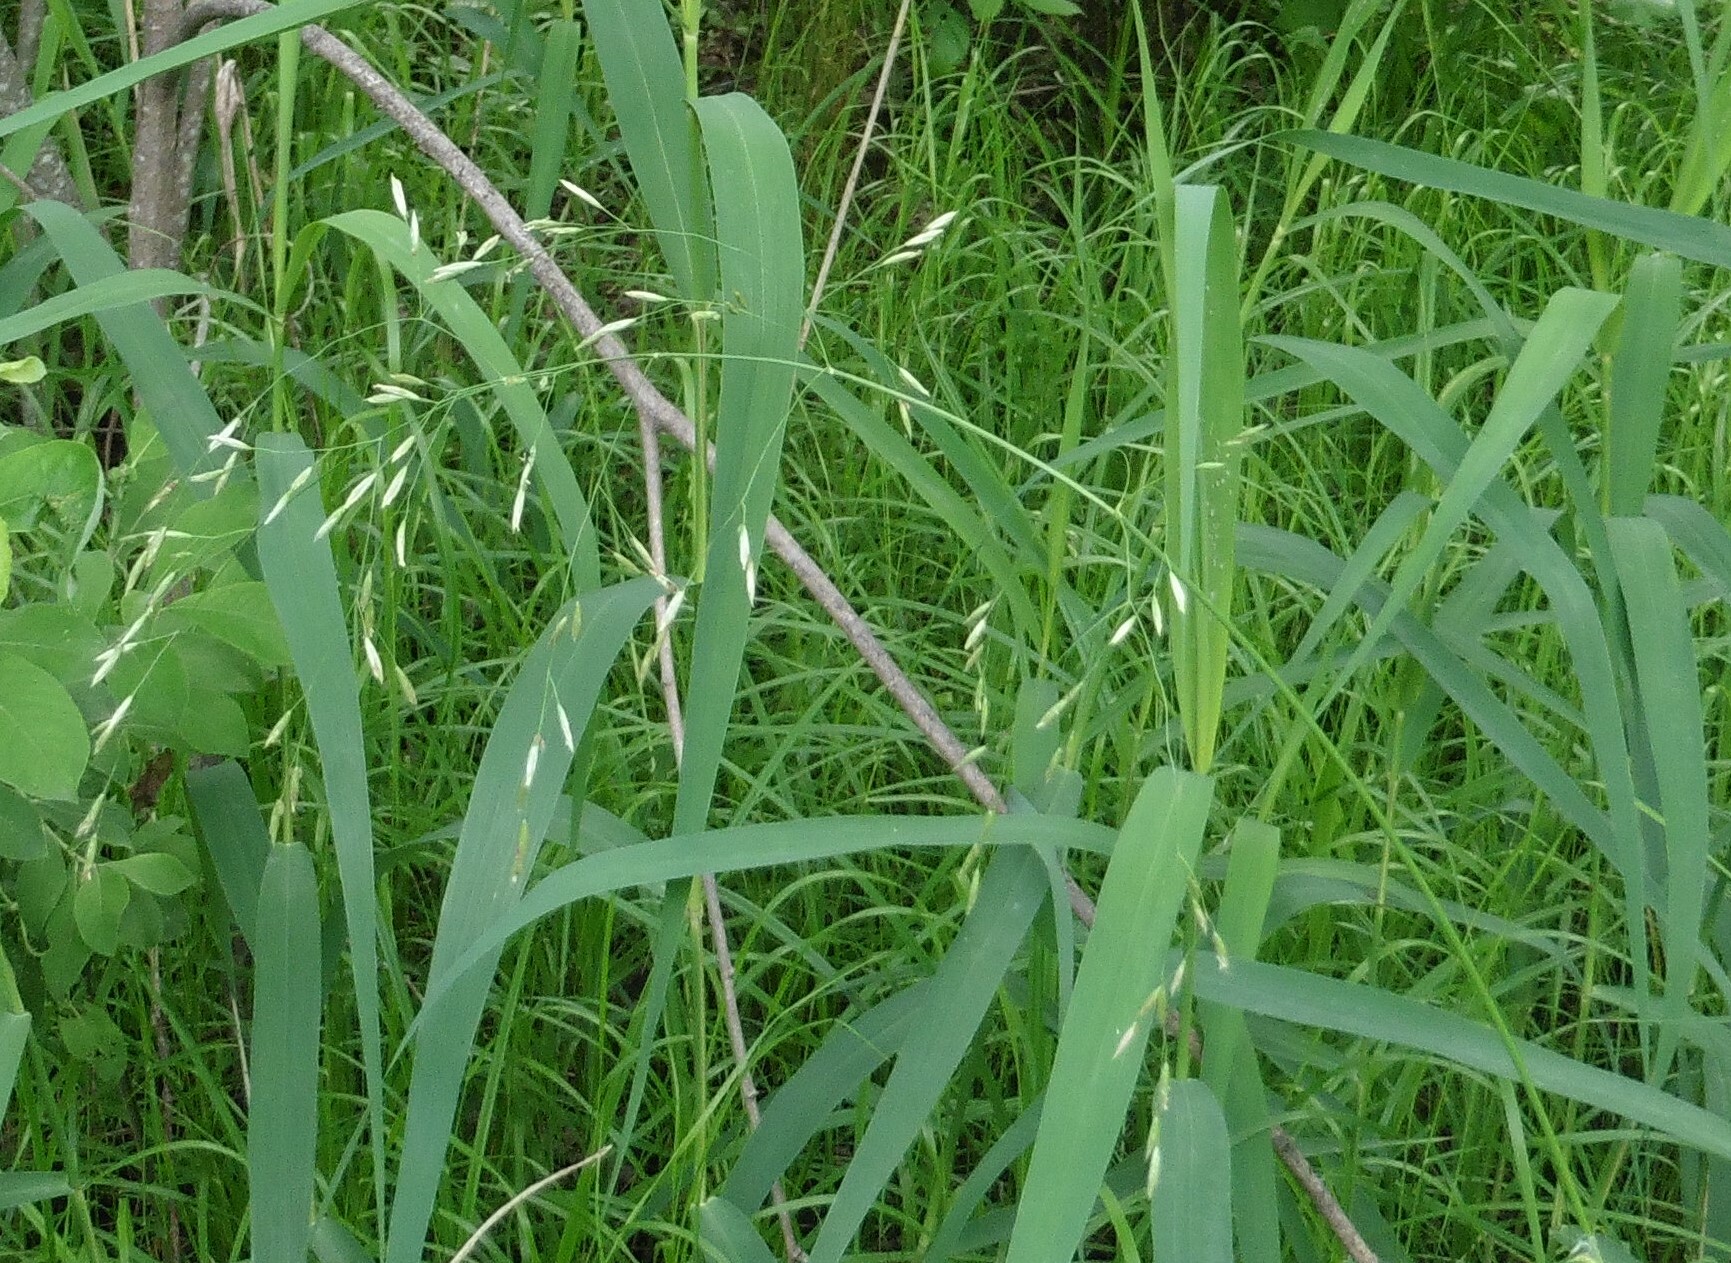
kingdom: Plantae
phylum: Tracheophyta
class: Liliopsida
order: Poales
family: Poaceae
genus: Scolochloa
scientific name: Scolochloa festucacea
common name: Common rivergrass
